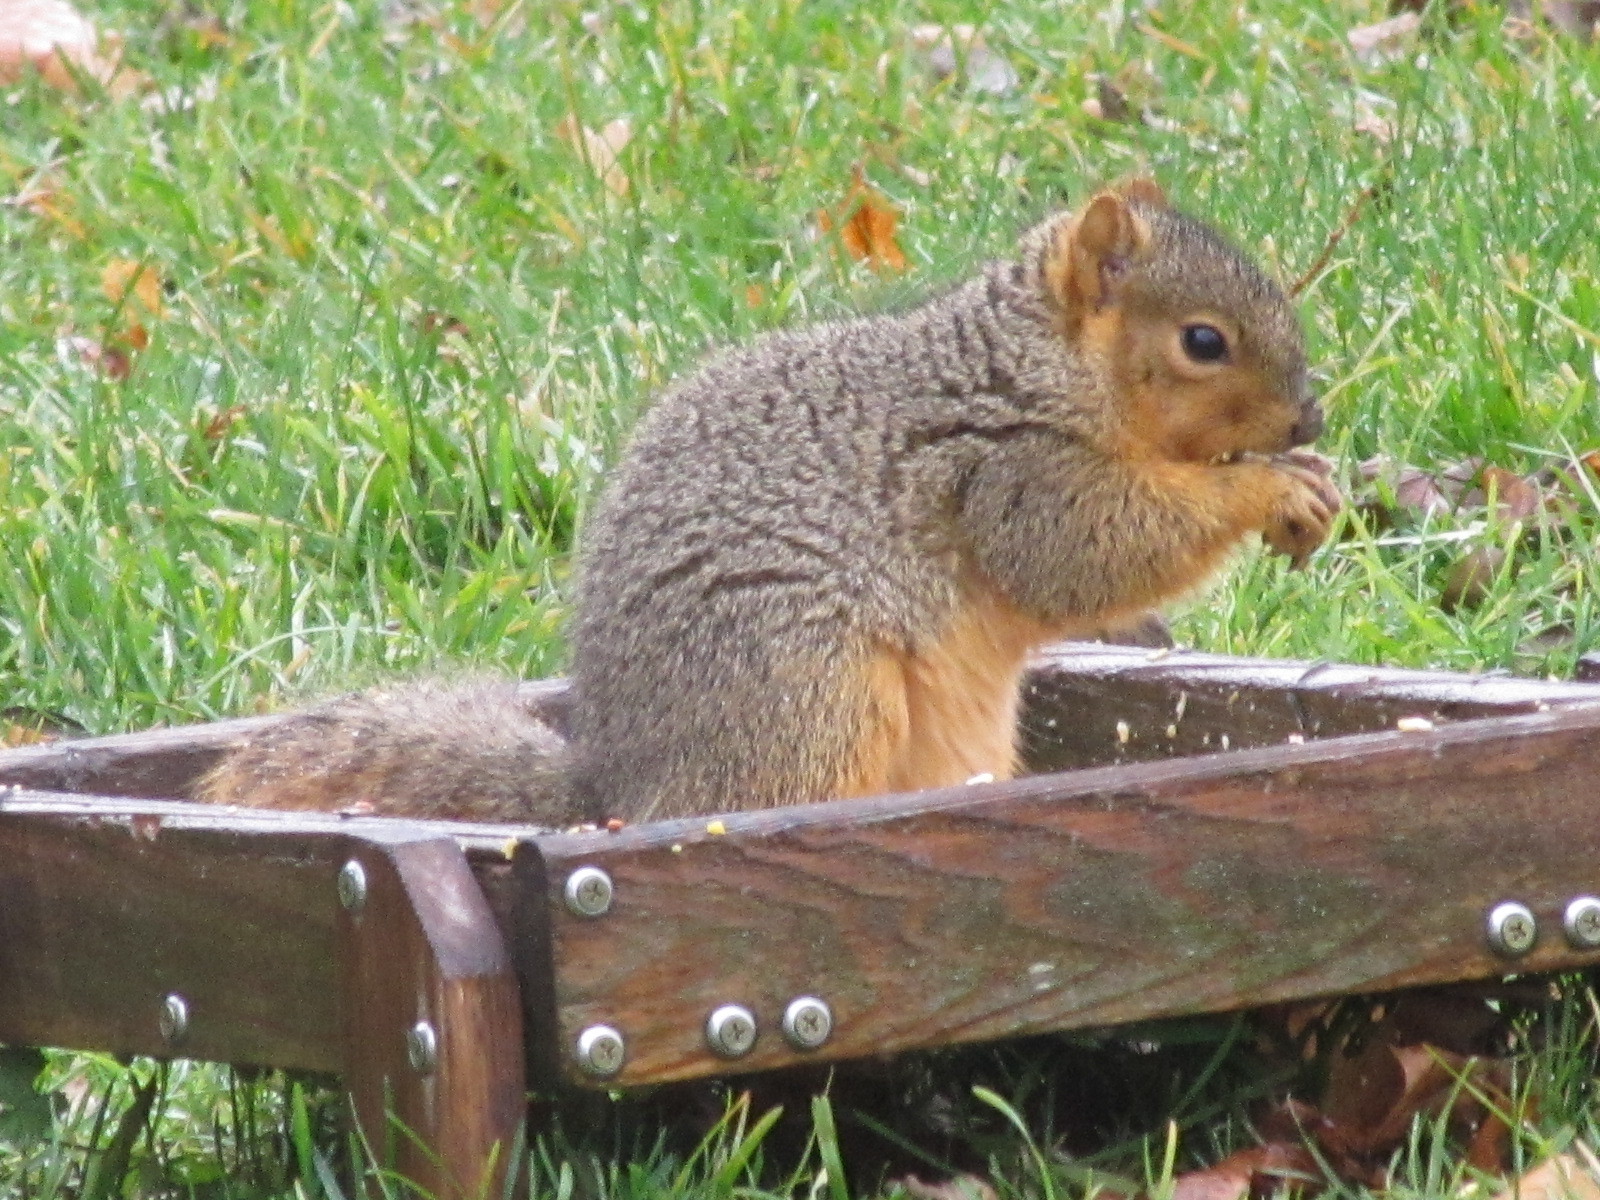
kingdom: Animalia
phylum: Chordata
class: Mammalia
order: Rodentia
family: Sciuridae
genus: Sciurus
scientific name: Sciurus niger
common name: Fox squirrel
